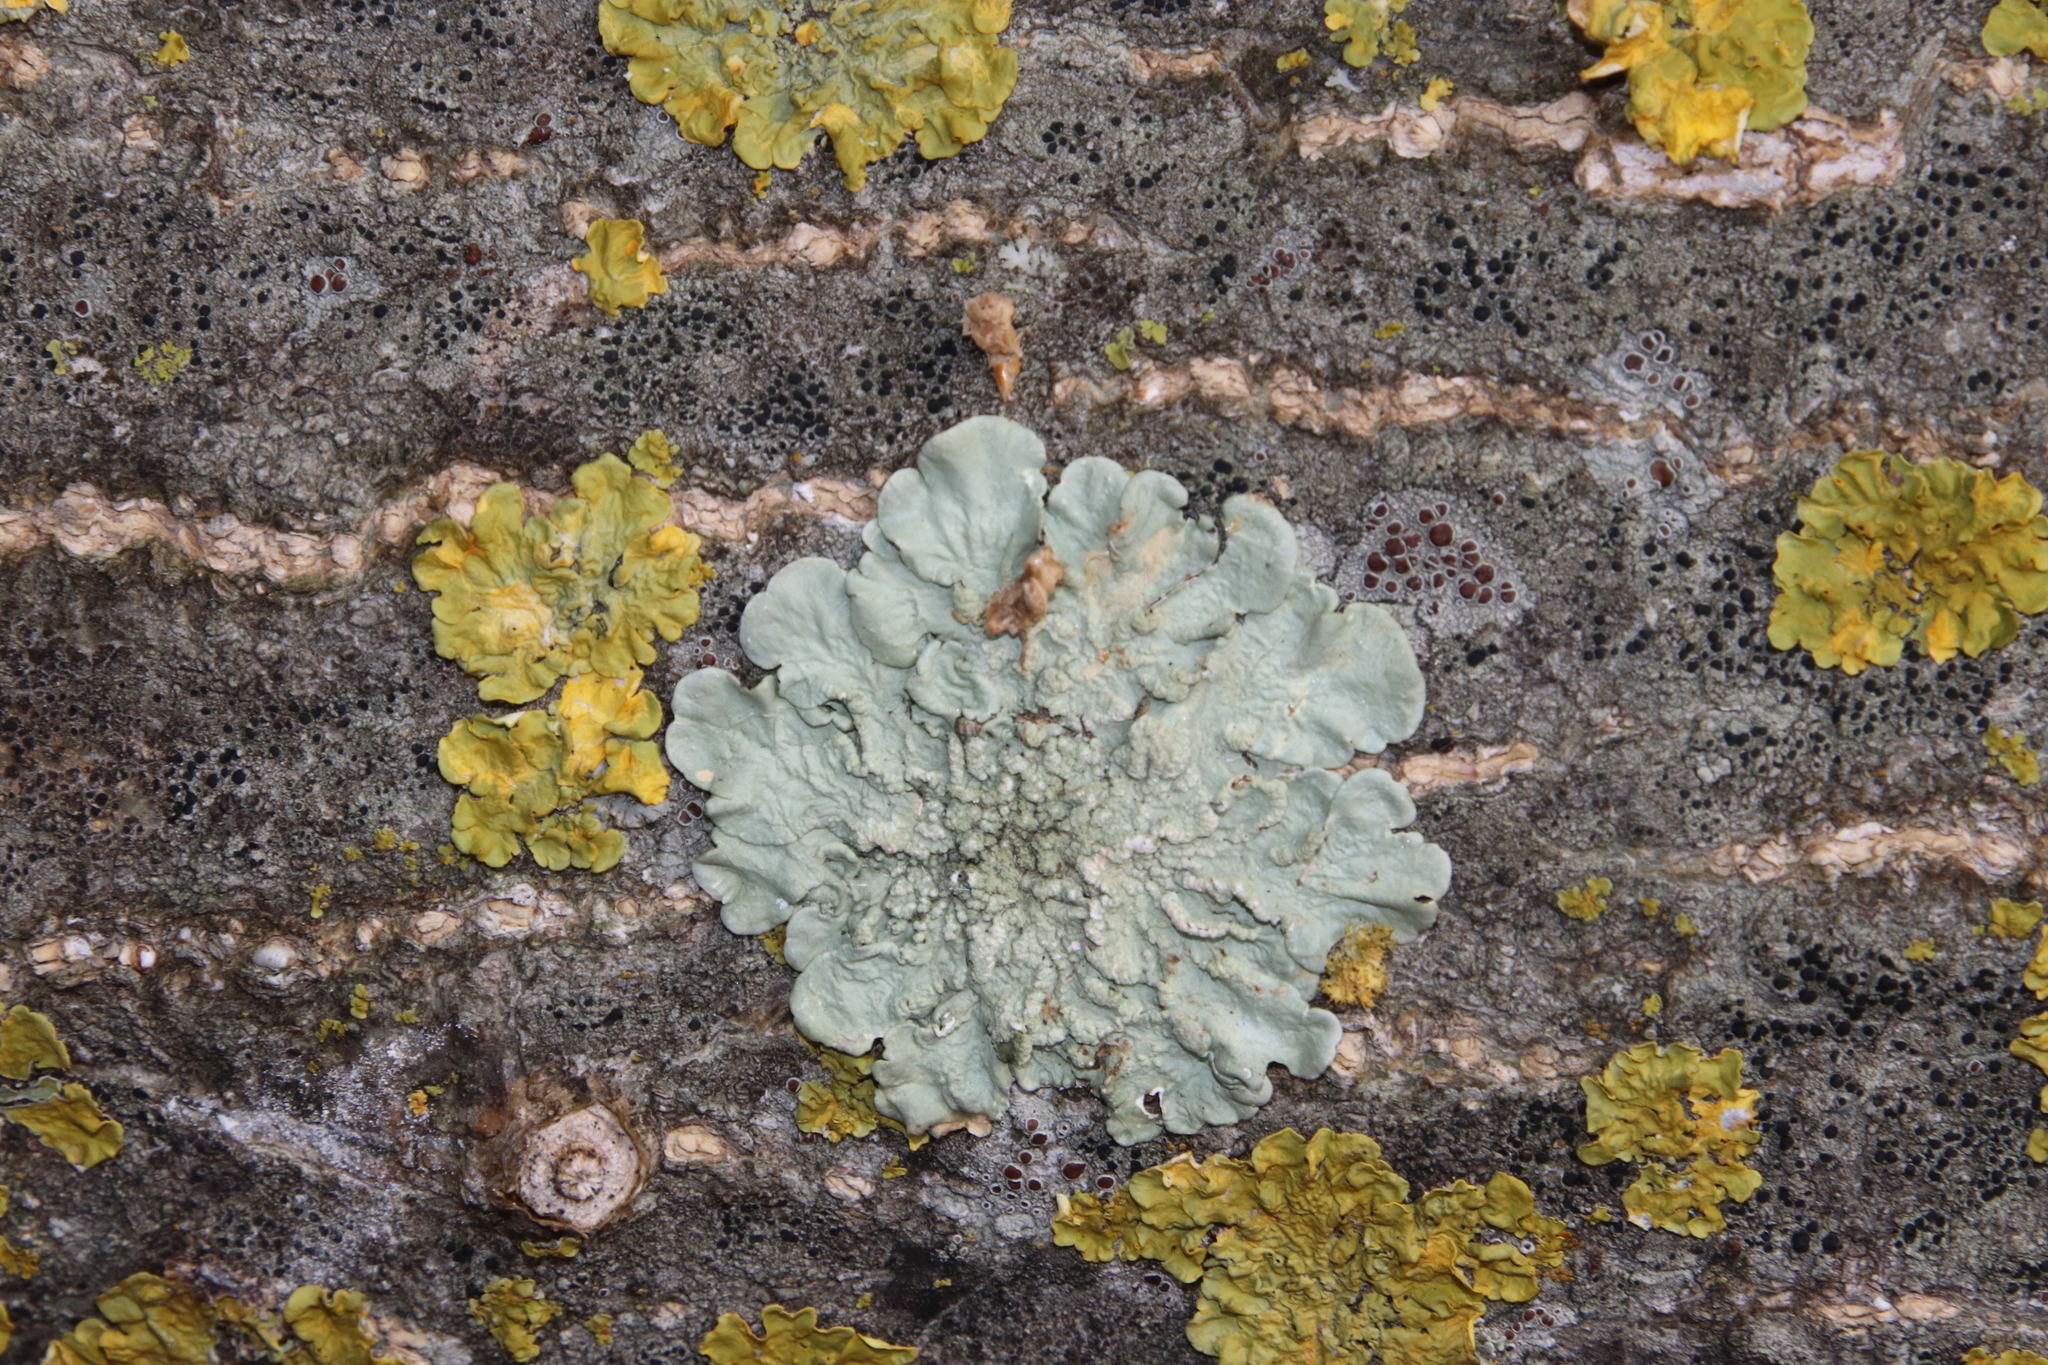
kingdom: Fungi
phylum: Ascomycota
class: Lecanoromycetes
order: Lecanorales
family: Parmeliaceae
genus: Flavoparmelia
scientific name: Flavoparmelia soredians
